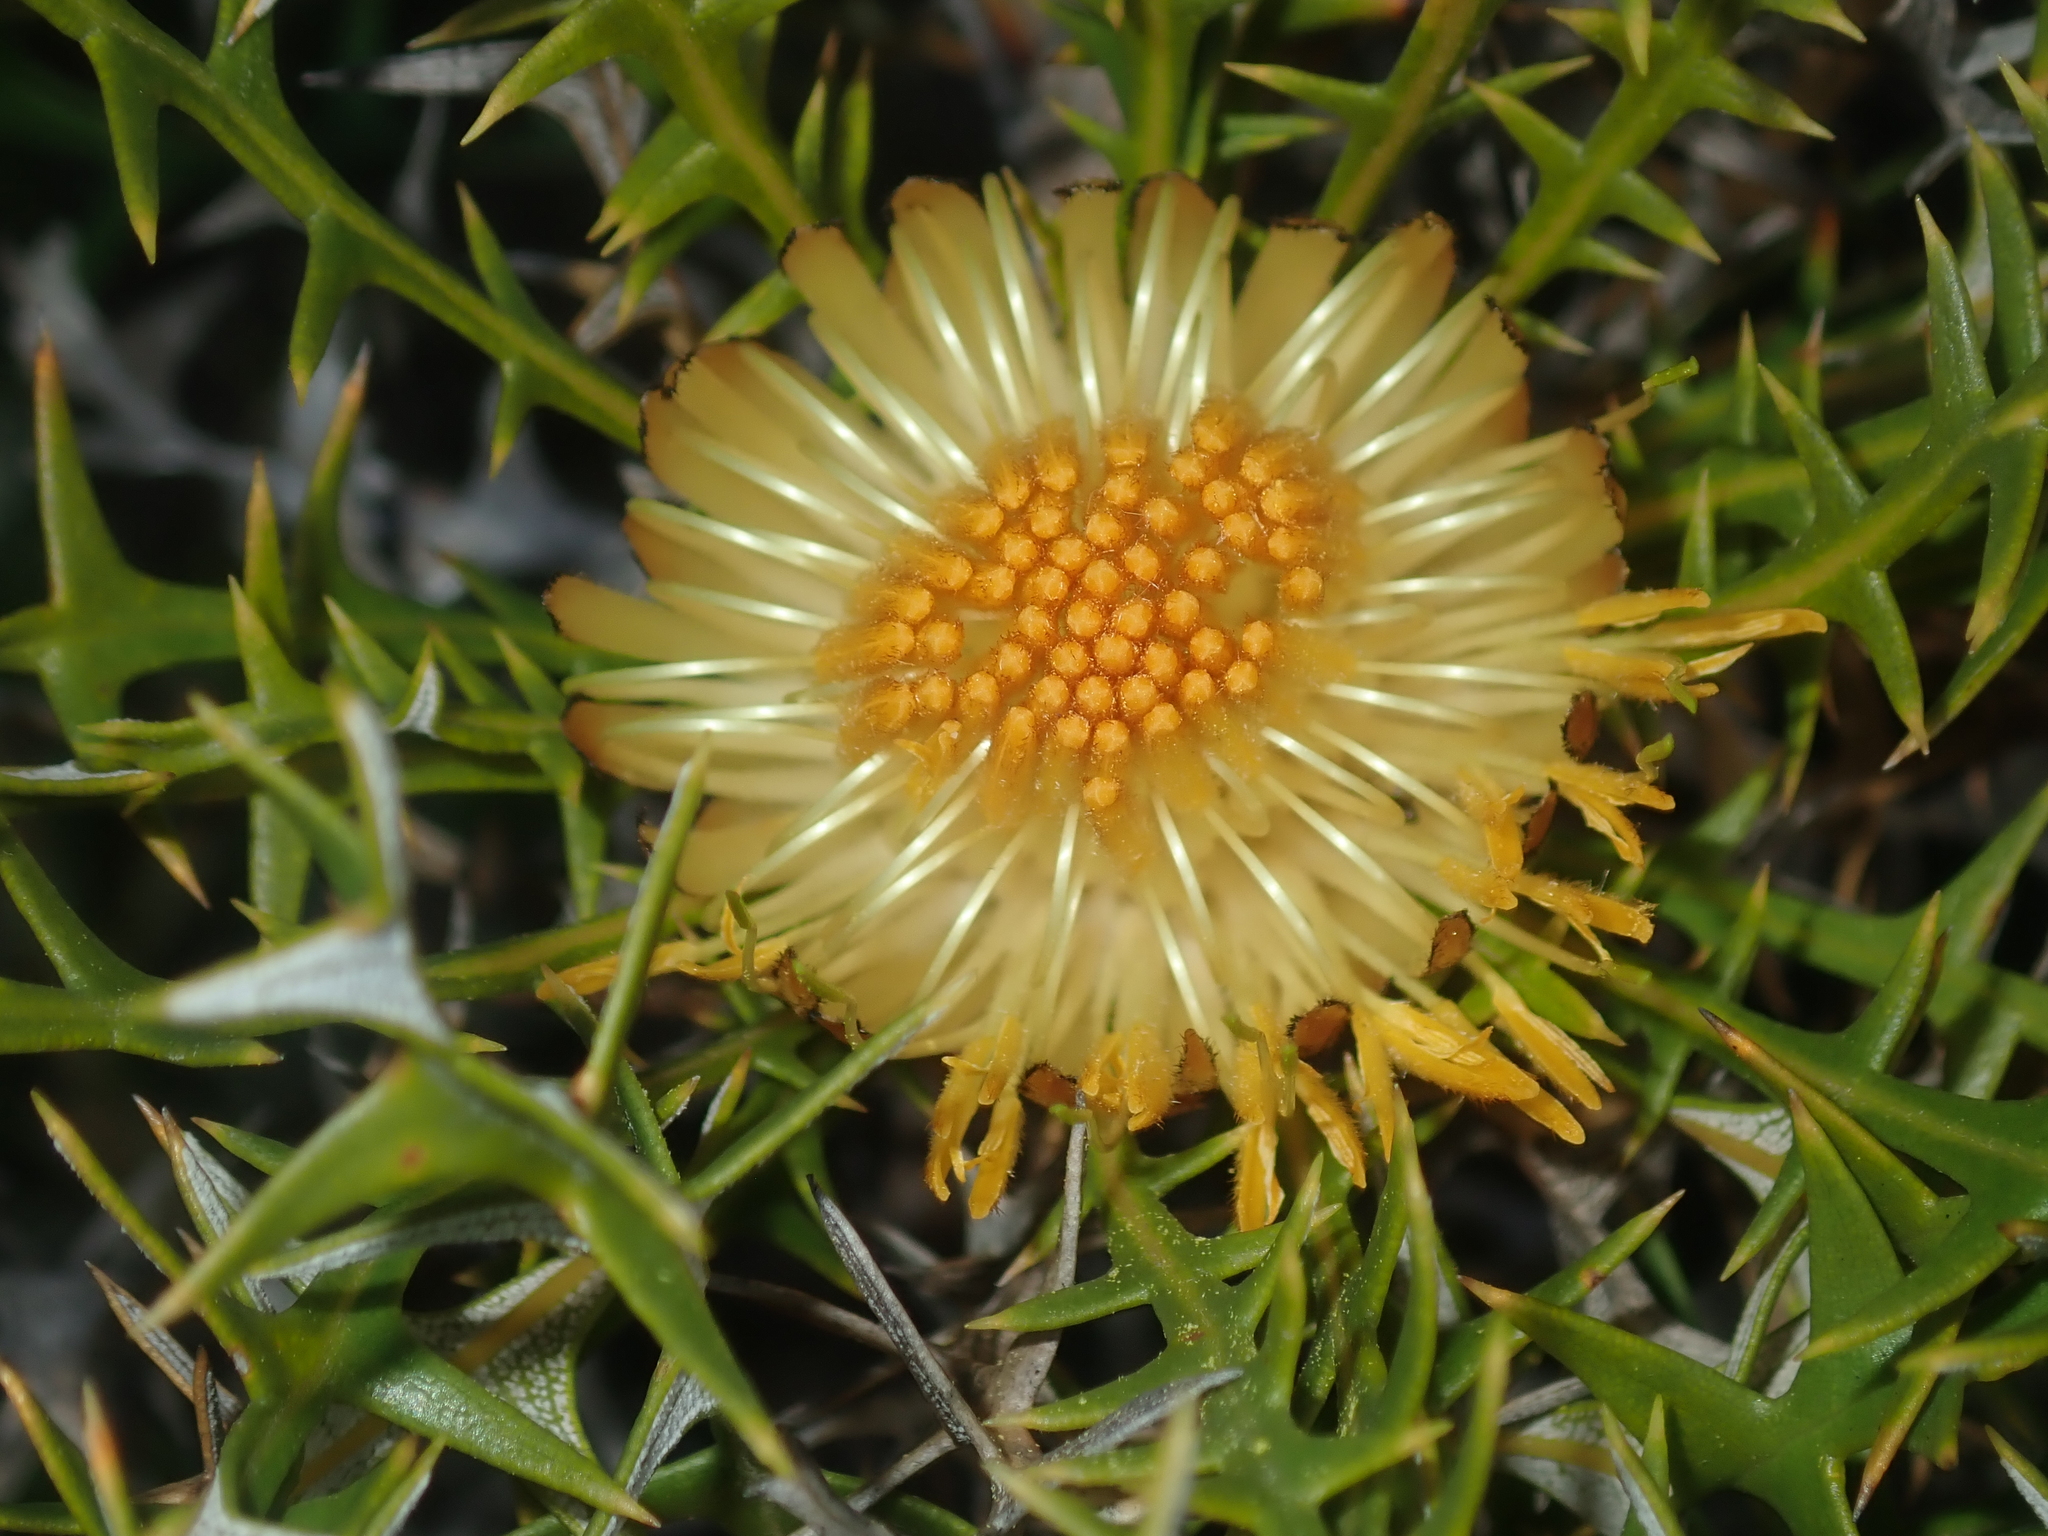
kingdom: Plantae
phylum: Tracheophyta
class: Magnoliopsida
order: Proteales
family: Proteaceae
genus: Banksia
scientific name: Banksia borealis
